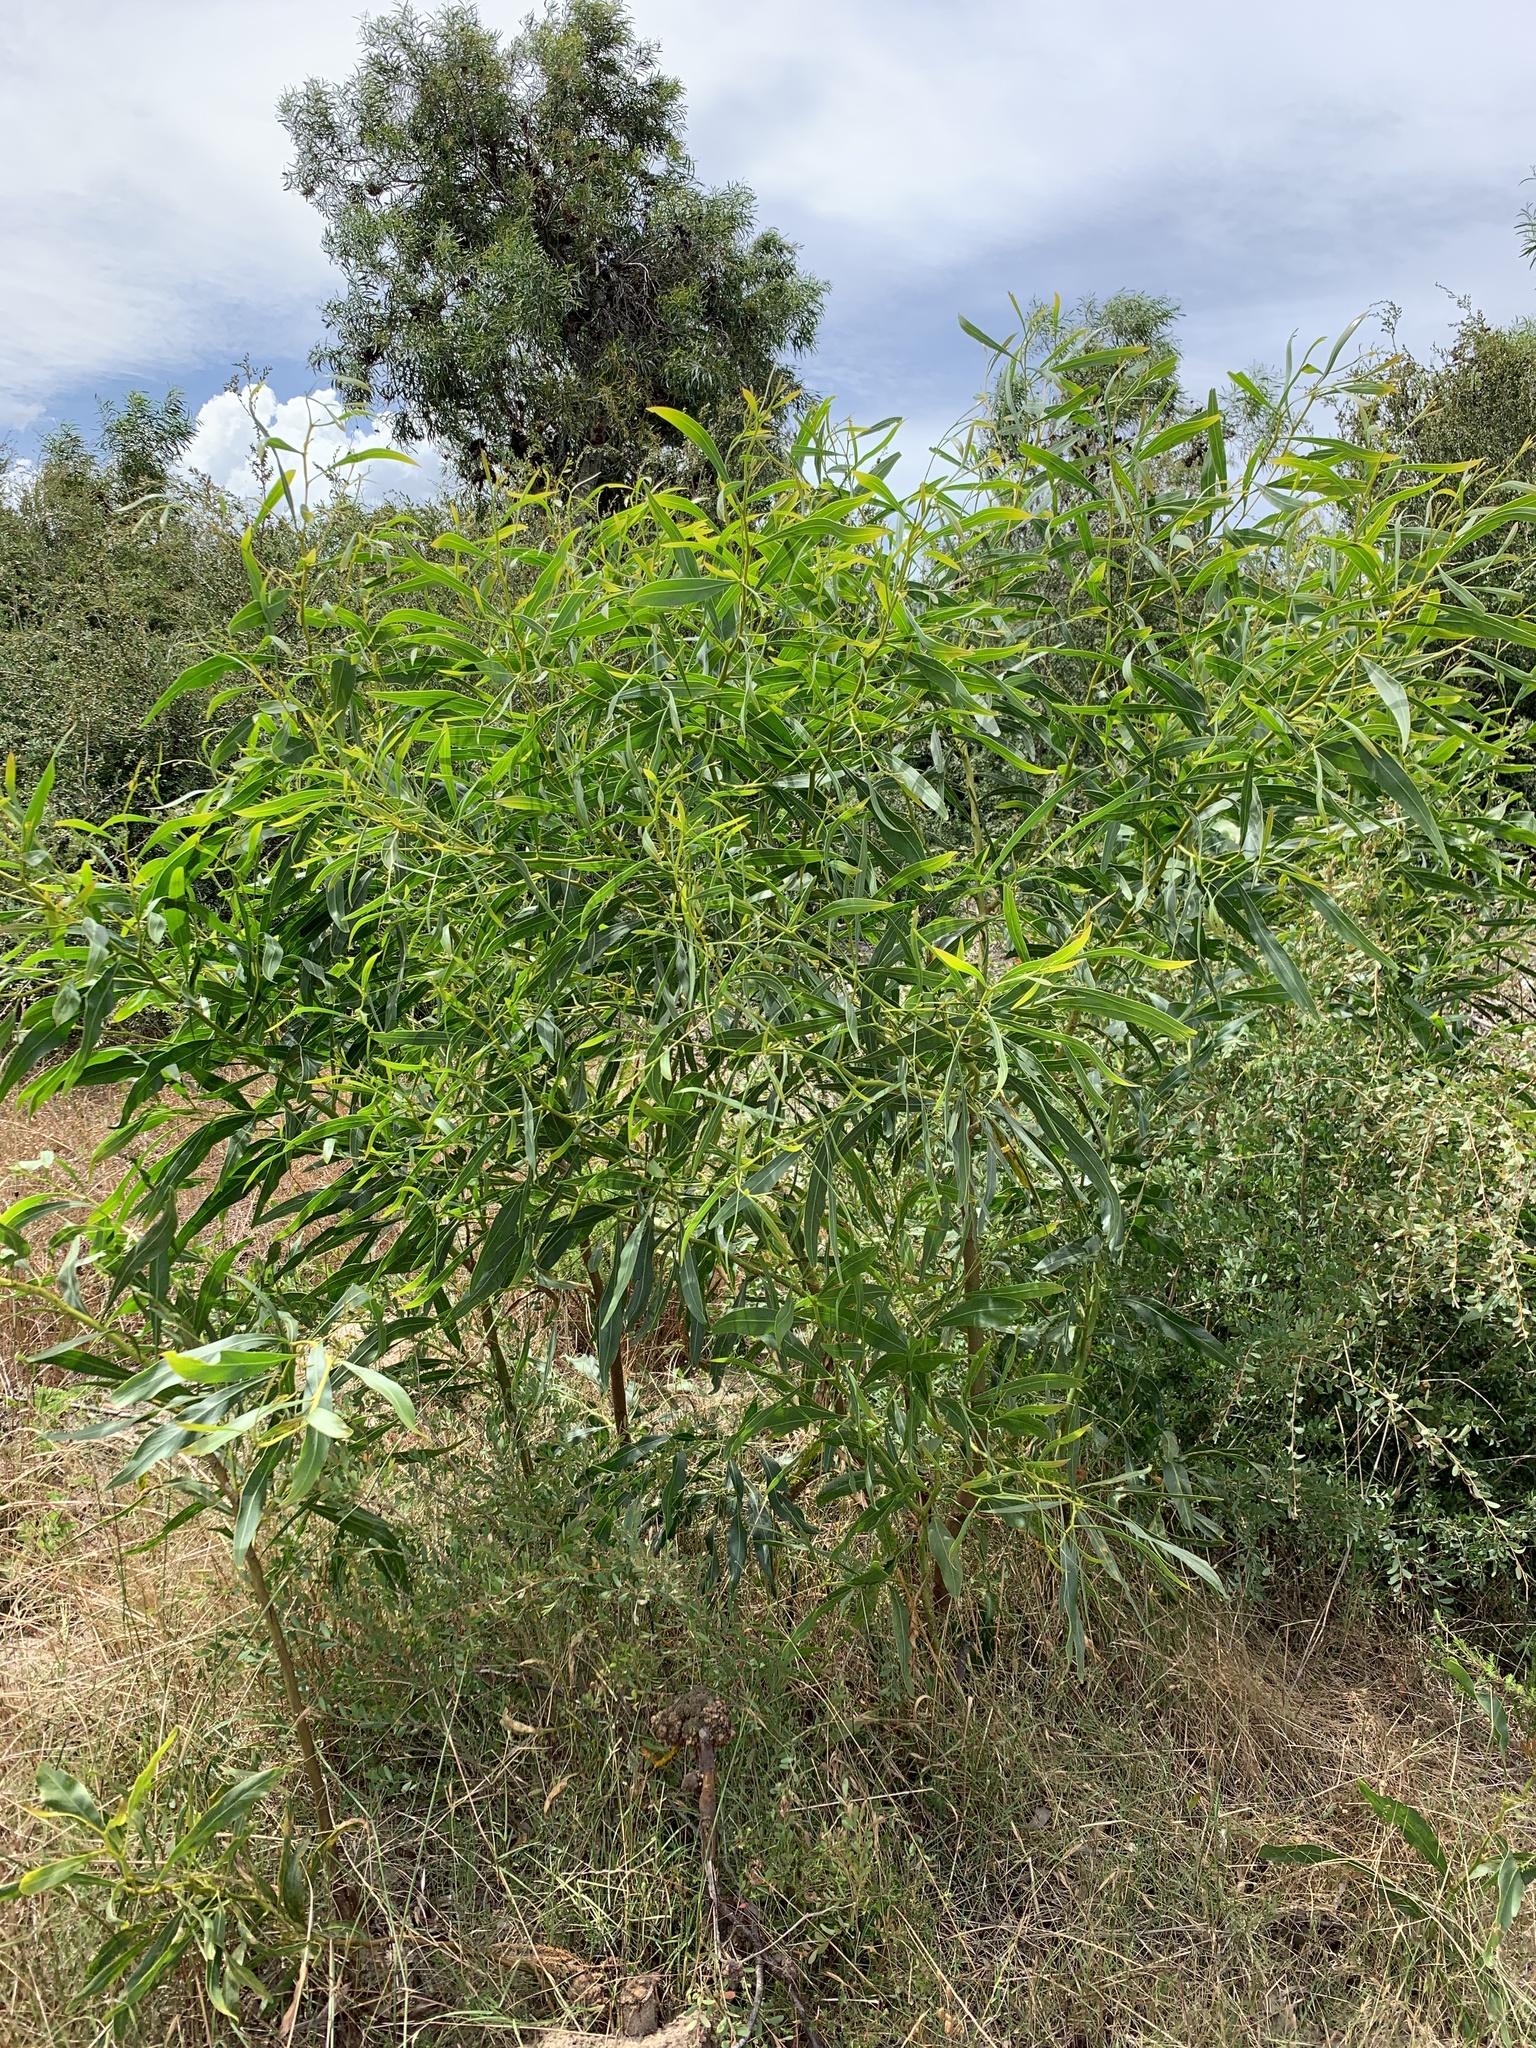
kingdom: Plantae
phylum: Tracheophyta
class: Magnoliopsida
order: Fabales
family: Fabaceae
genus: Acacia
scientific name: Acacia saligna
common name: Orange wattle
